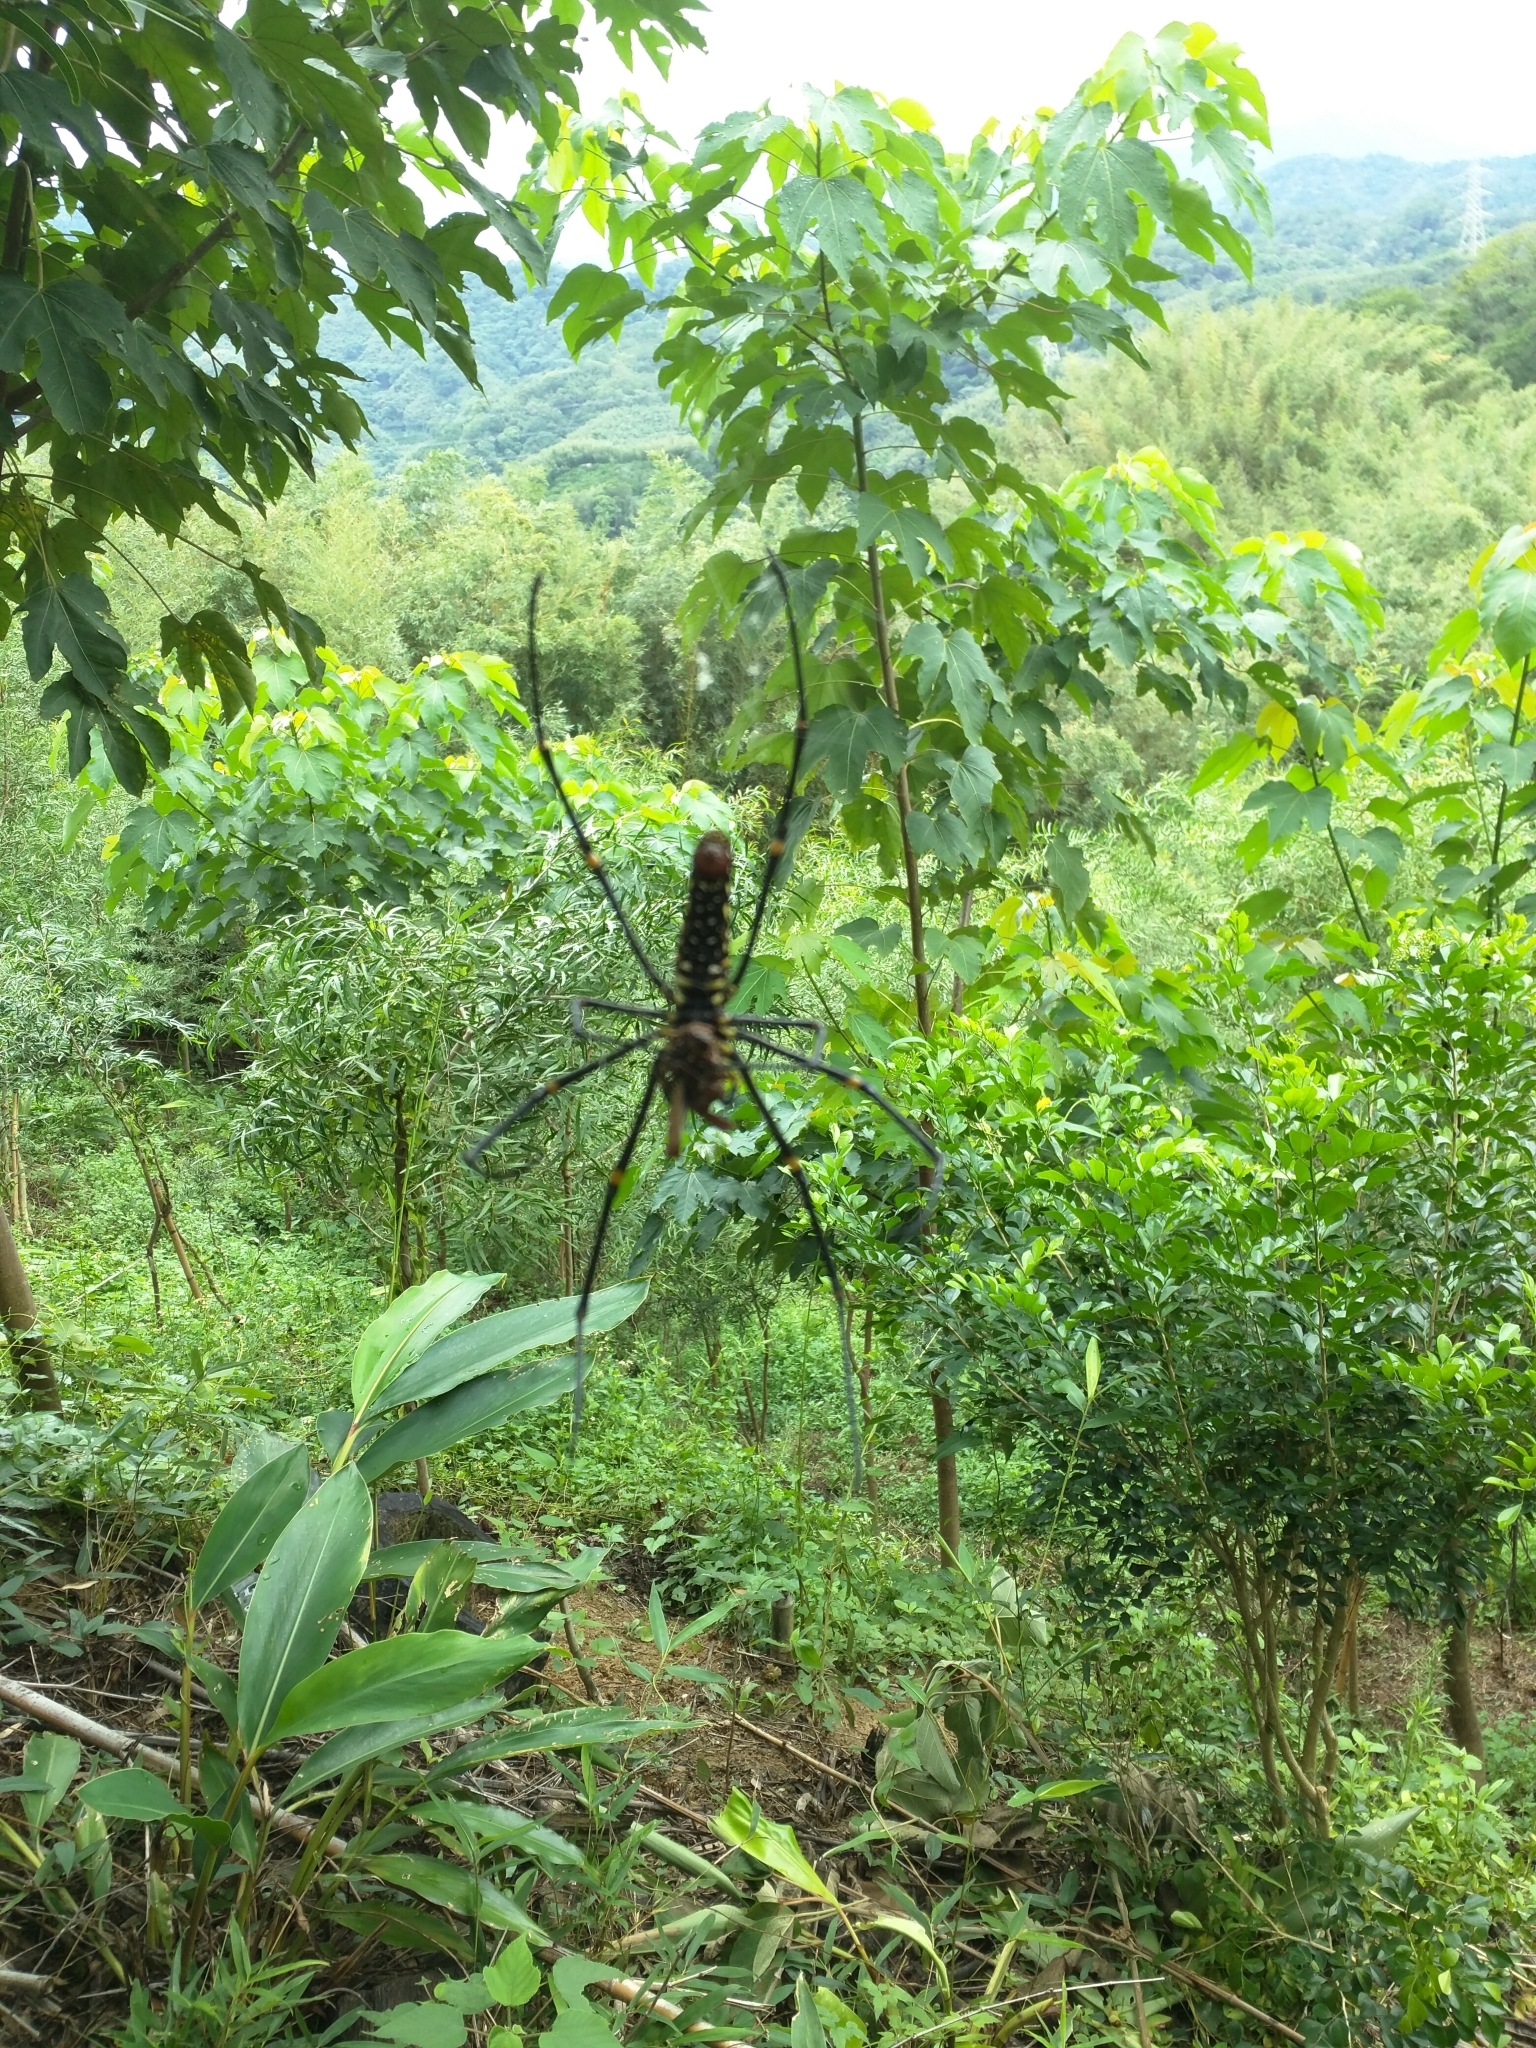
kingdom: Animalia
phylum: Arthropoda
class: Arachnida
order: Araneae
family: Araneidae
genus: Nephila
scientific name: Nephila pilipes
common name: Giant golden orb weaver
